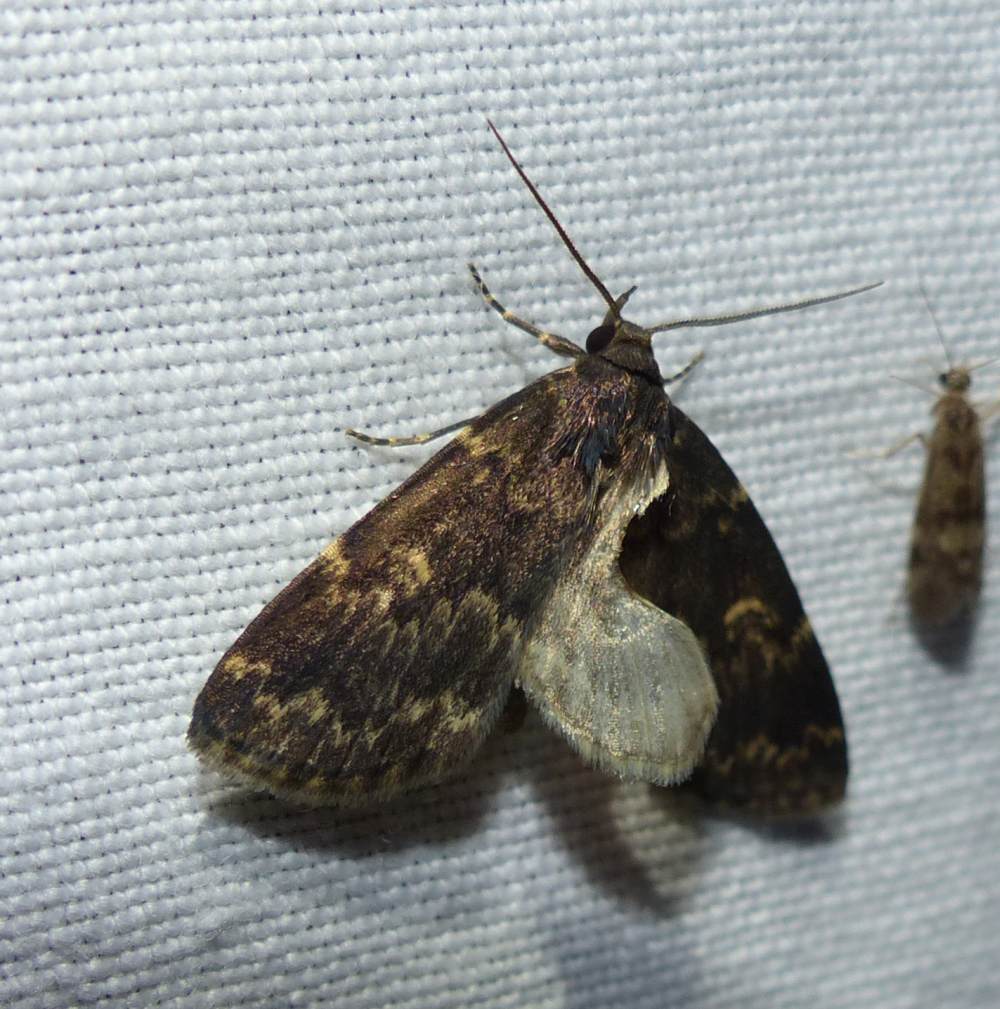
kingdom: Animalia
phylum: Arthropoda
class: Insecta
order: Lepidoptera
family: Erebidae
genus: Idia
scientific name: Idia lubricalis
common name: Twin-striped tabby
